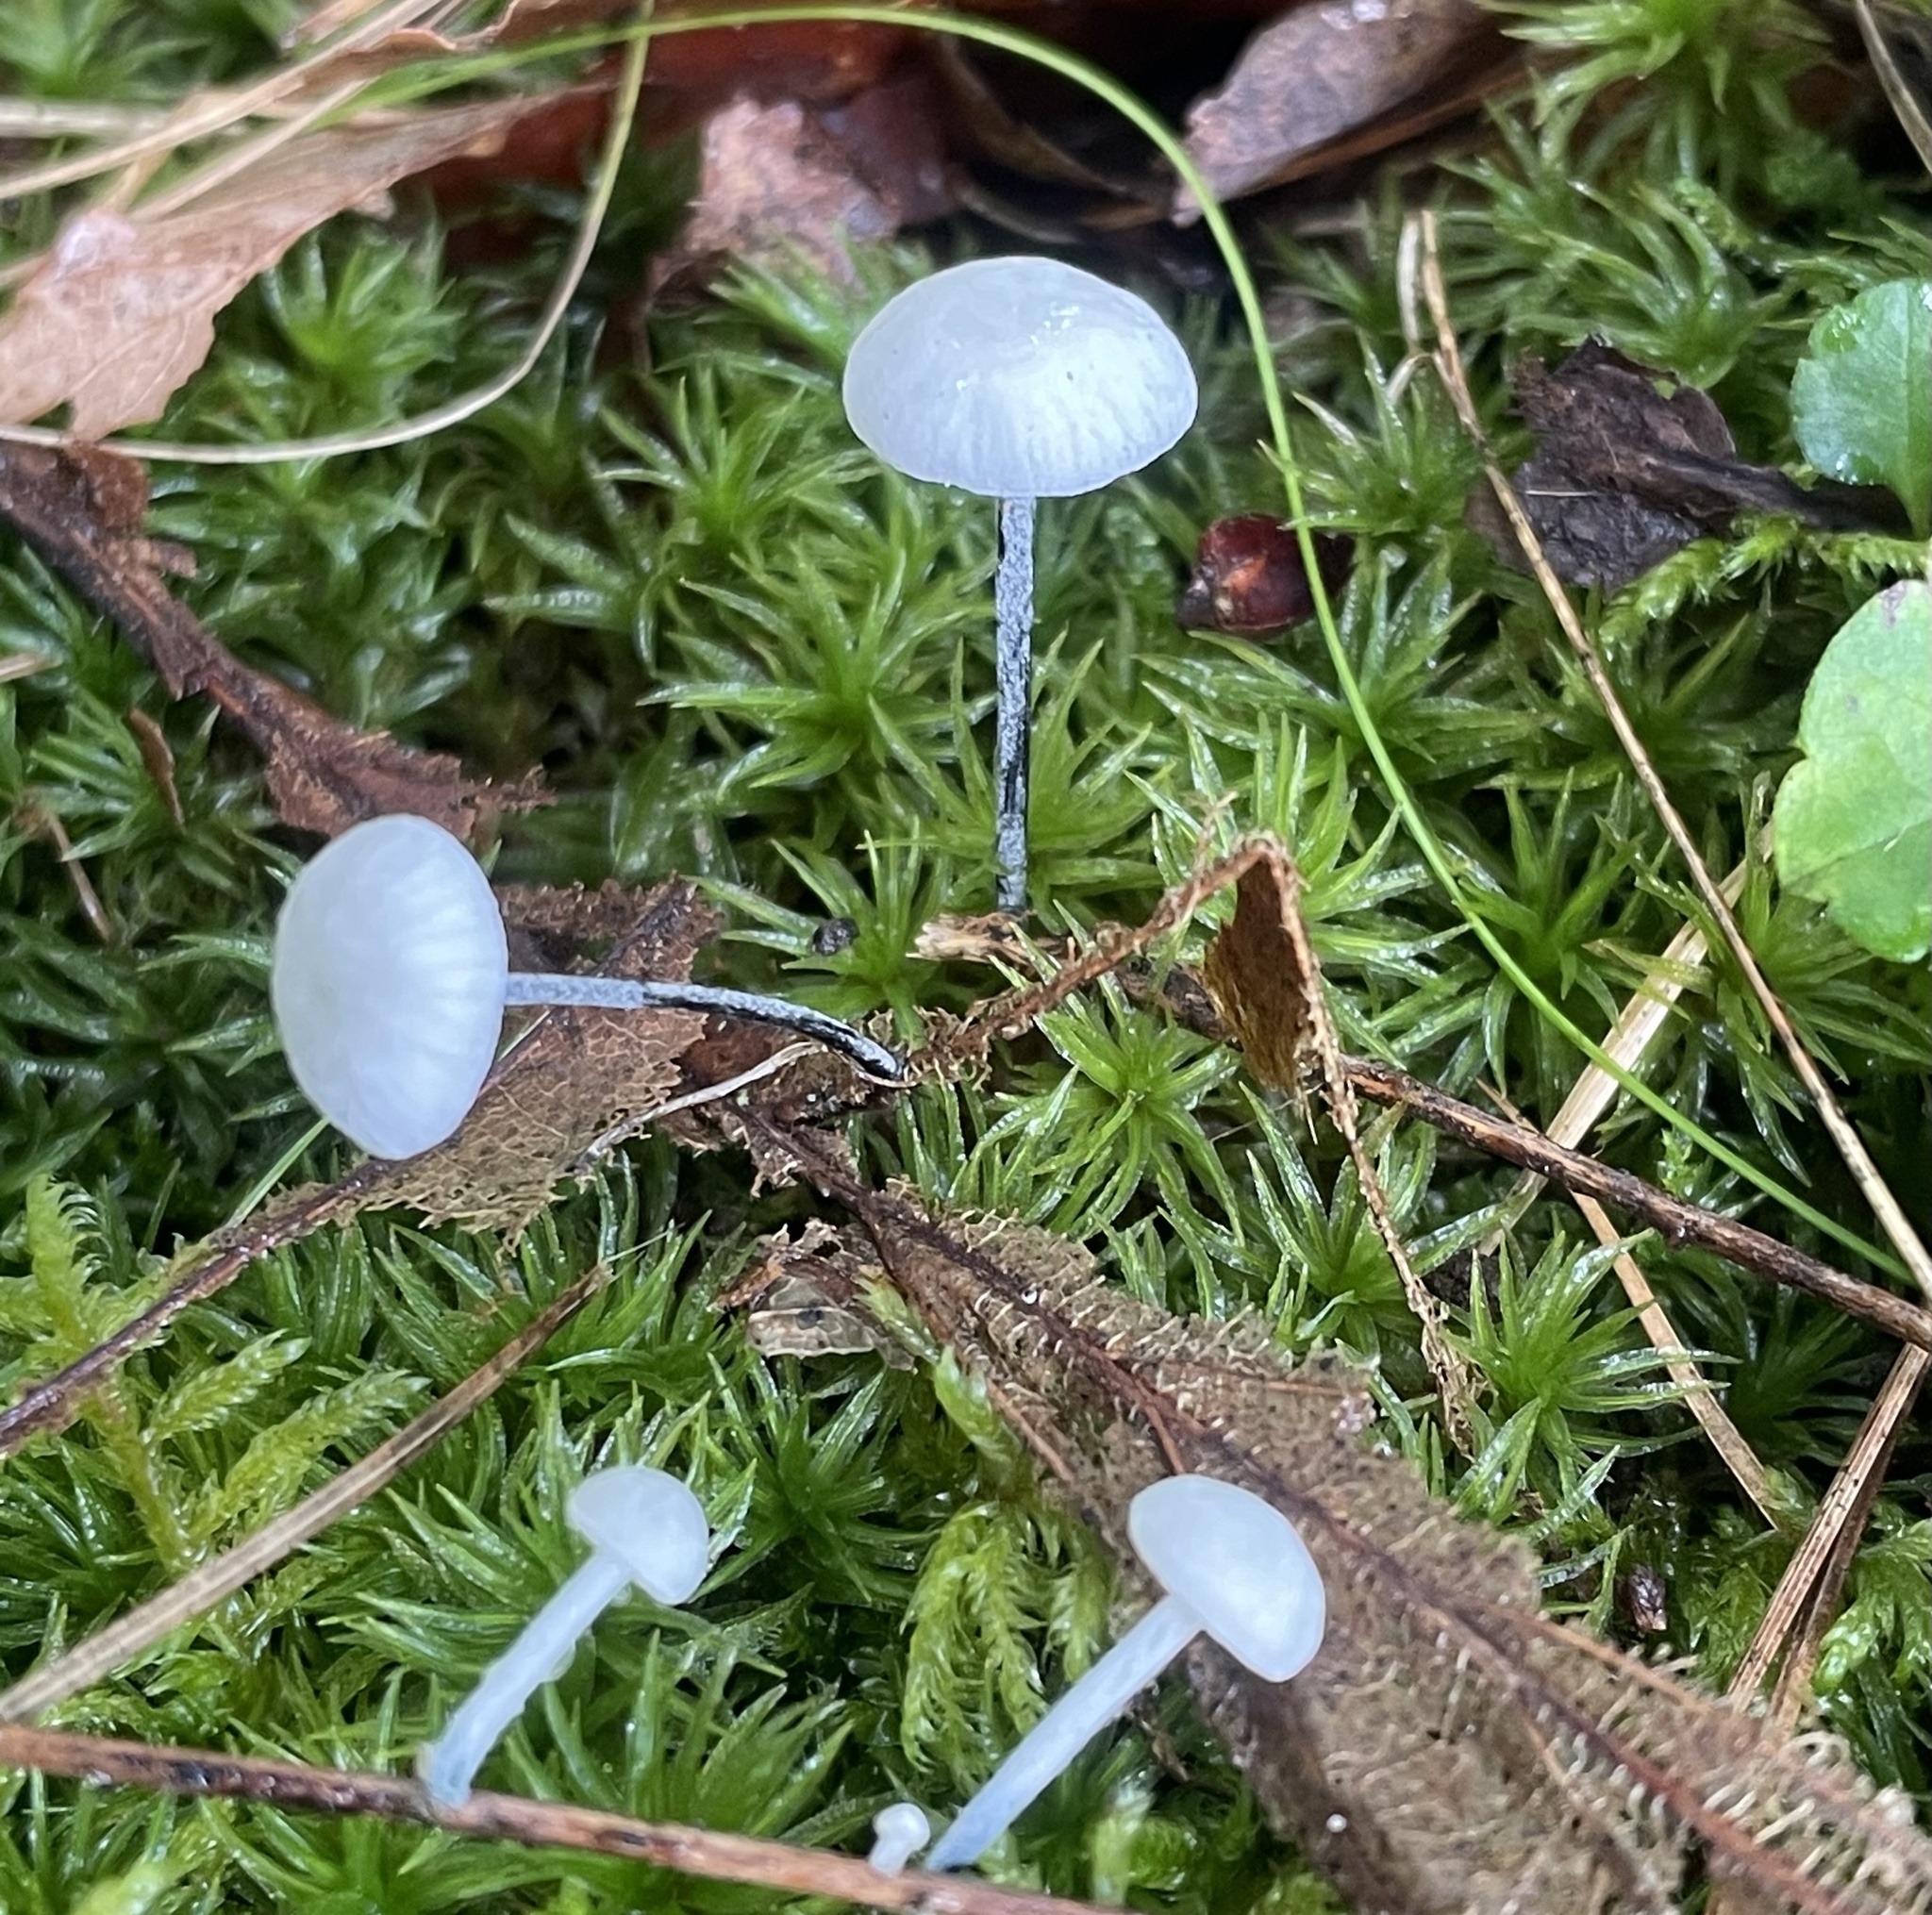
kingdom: Fungi
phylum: Basidiomycota
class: Agaricomycetes
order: Agaricales
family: Marasmiaceae
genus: Tetrapyrgos
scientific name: Tetrapyrgos nigripes
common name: Black-stalked marasmius
